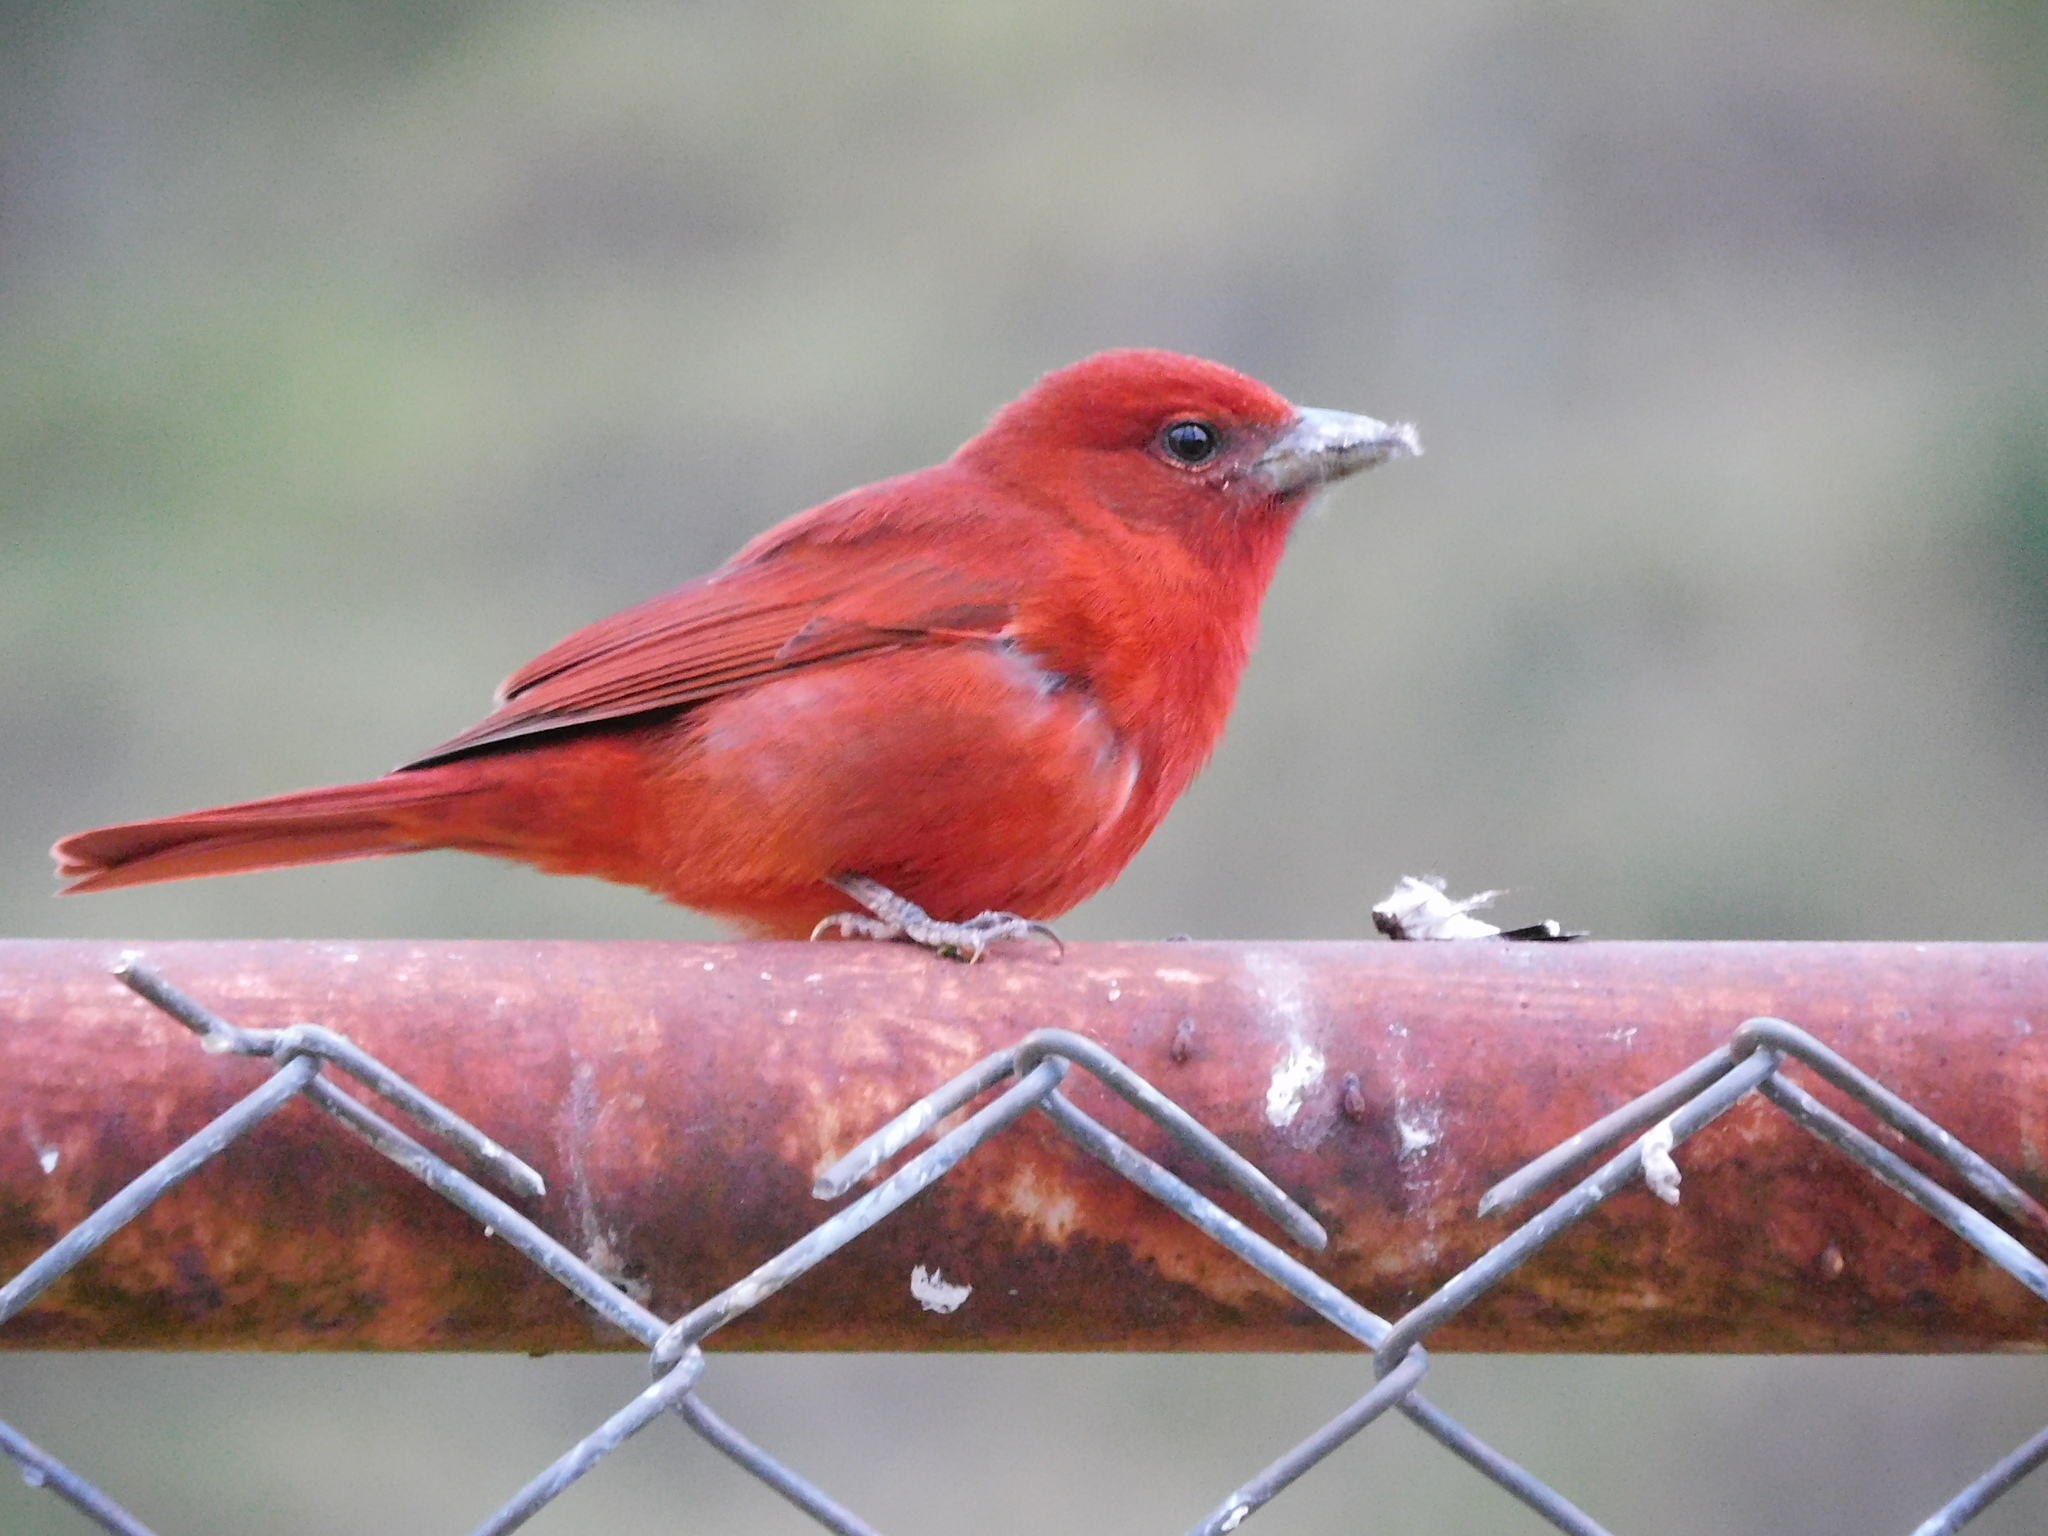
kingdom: Animalia
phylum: Chordata
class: Aves
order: Passeriformes
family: Cardinalidae
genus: Piranga
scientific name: Piranga rubra
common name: Summer tanager
